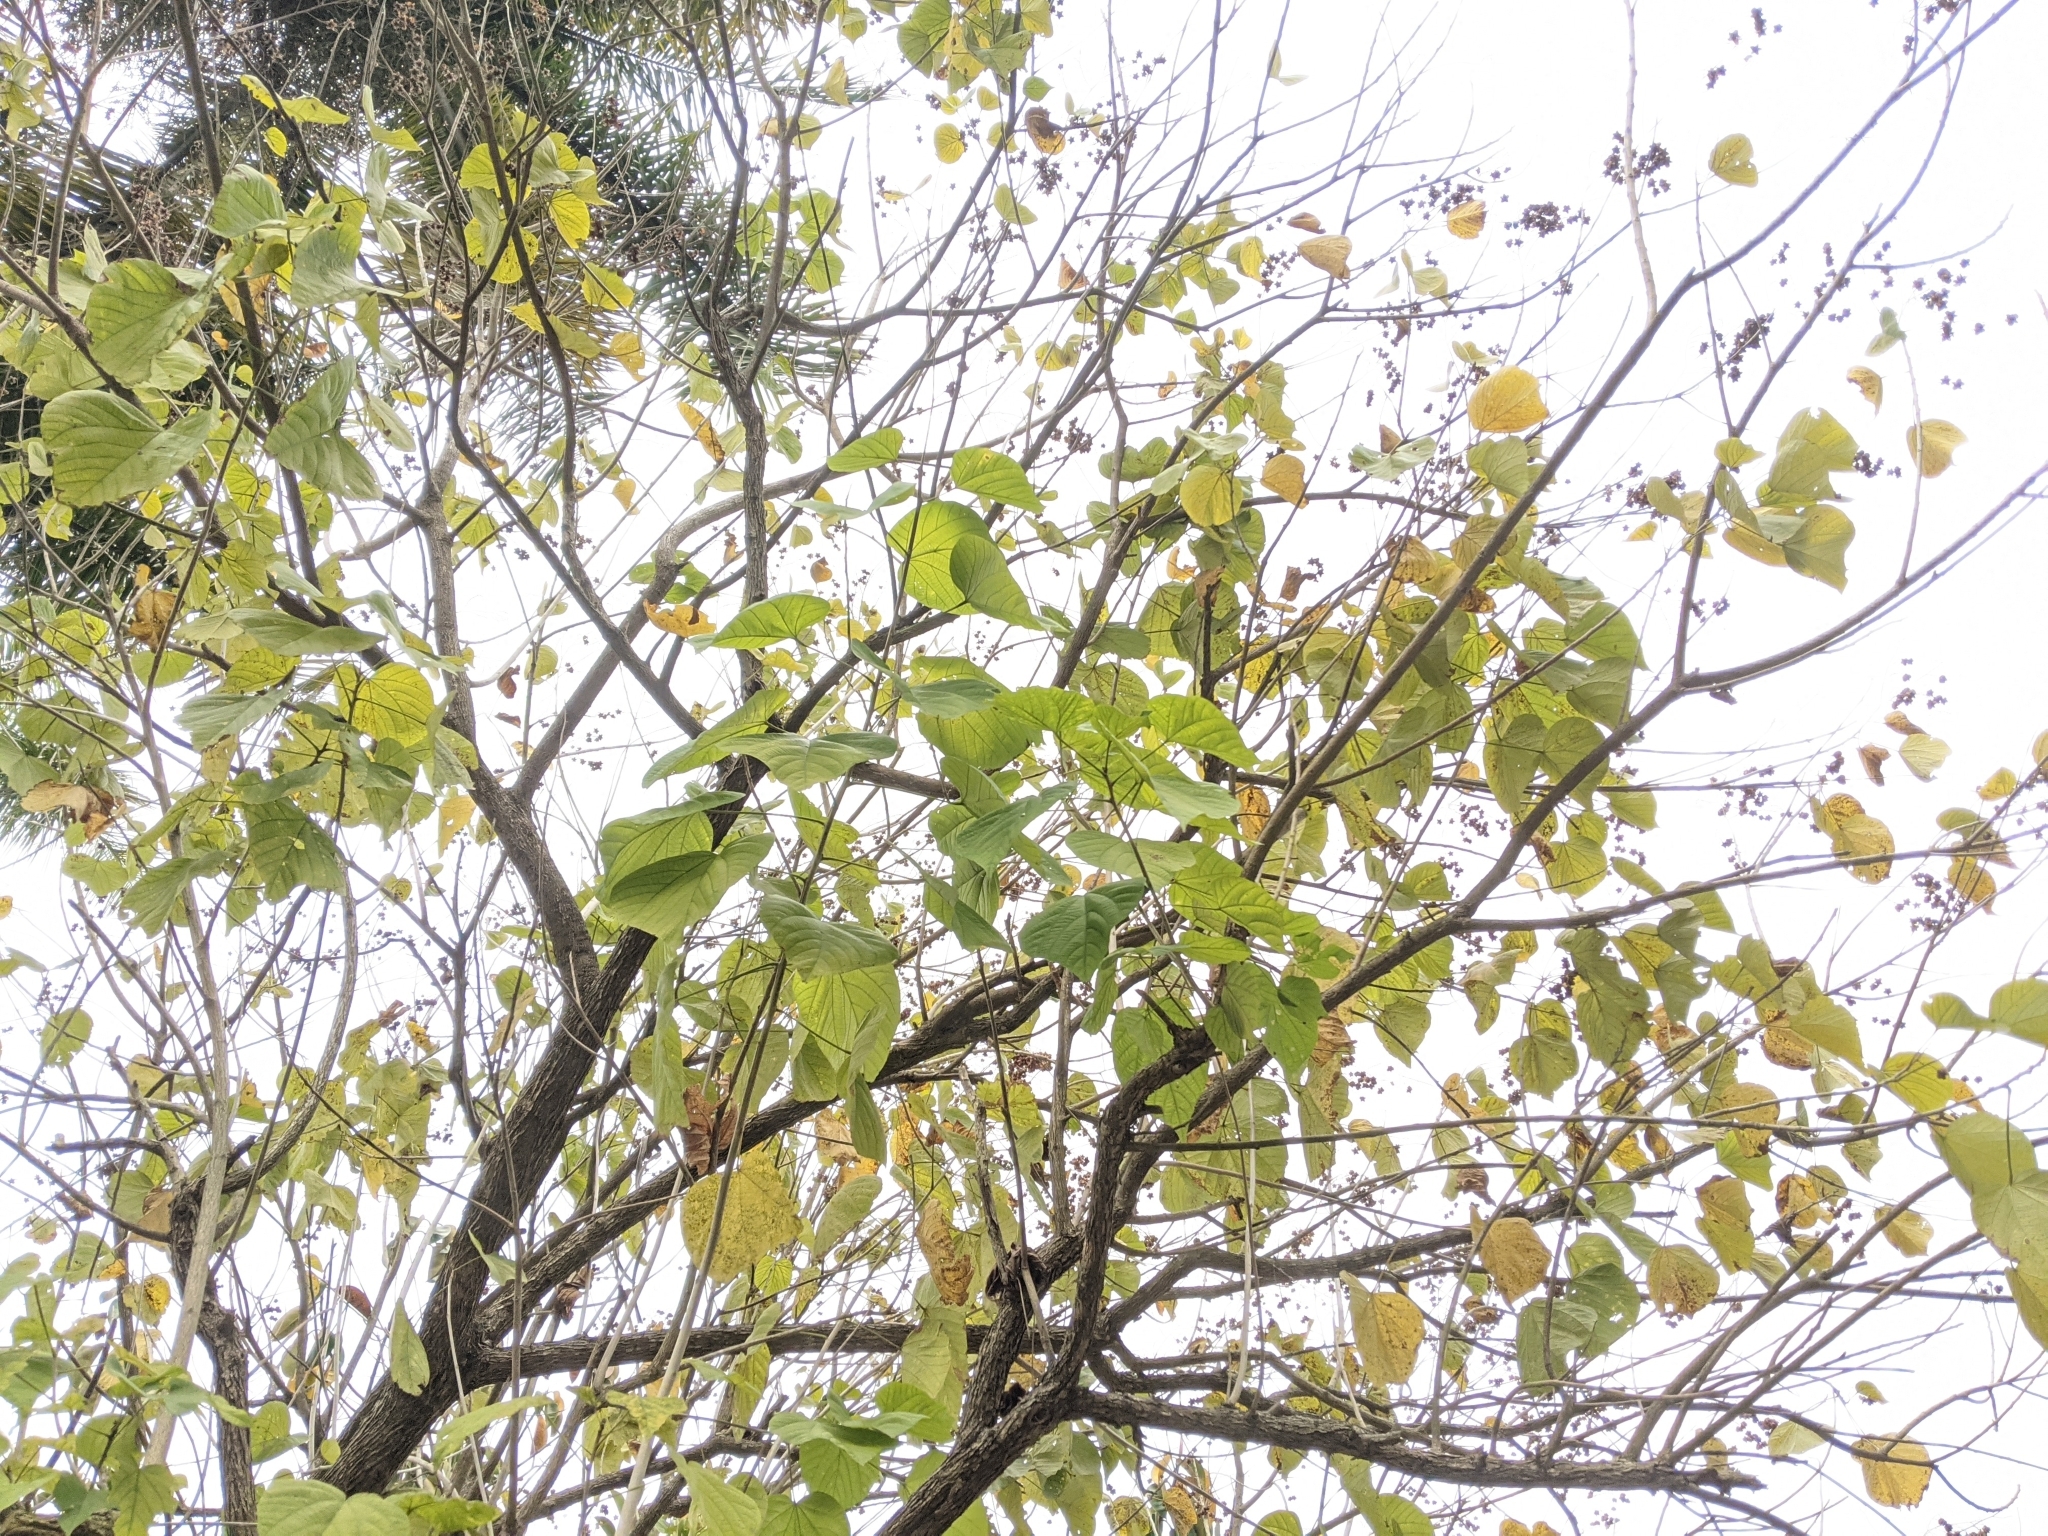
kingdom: Plantae
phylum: Tracheophyta
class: Magnoliopsida
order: Malvales
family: Malvaceae
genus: Kleinhovia
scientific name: Kleinhovia hospita
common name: Guest-tree
